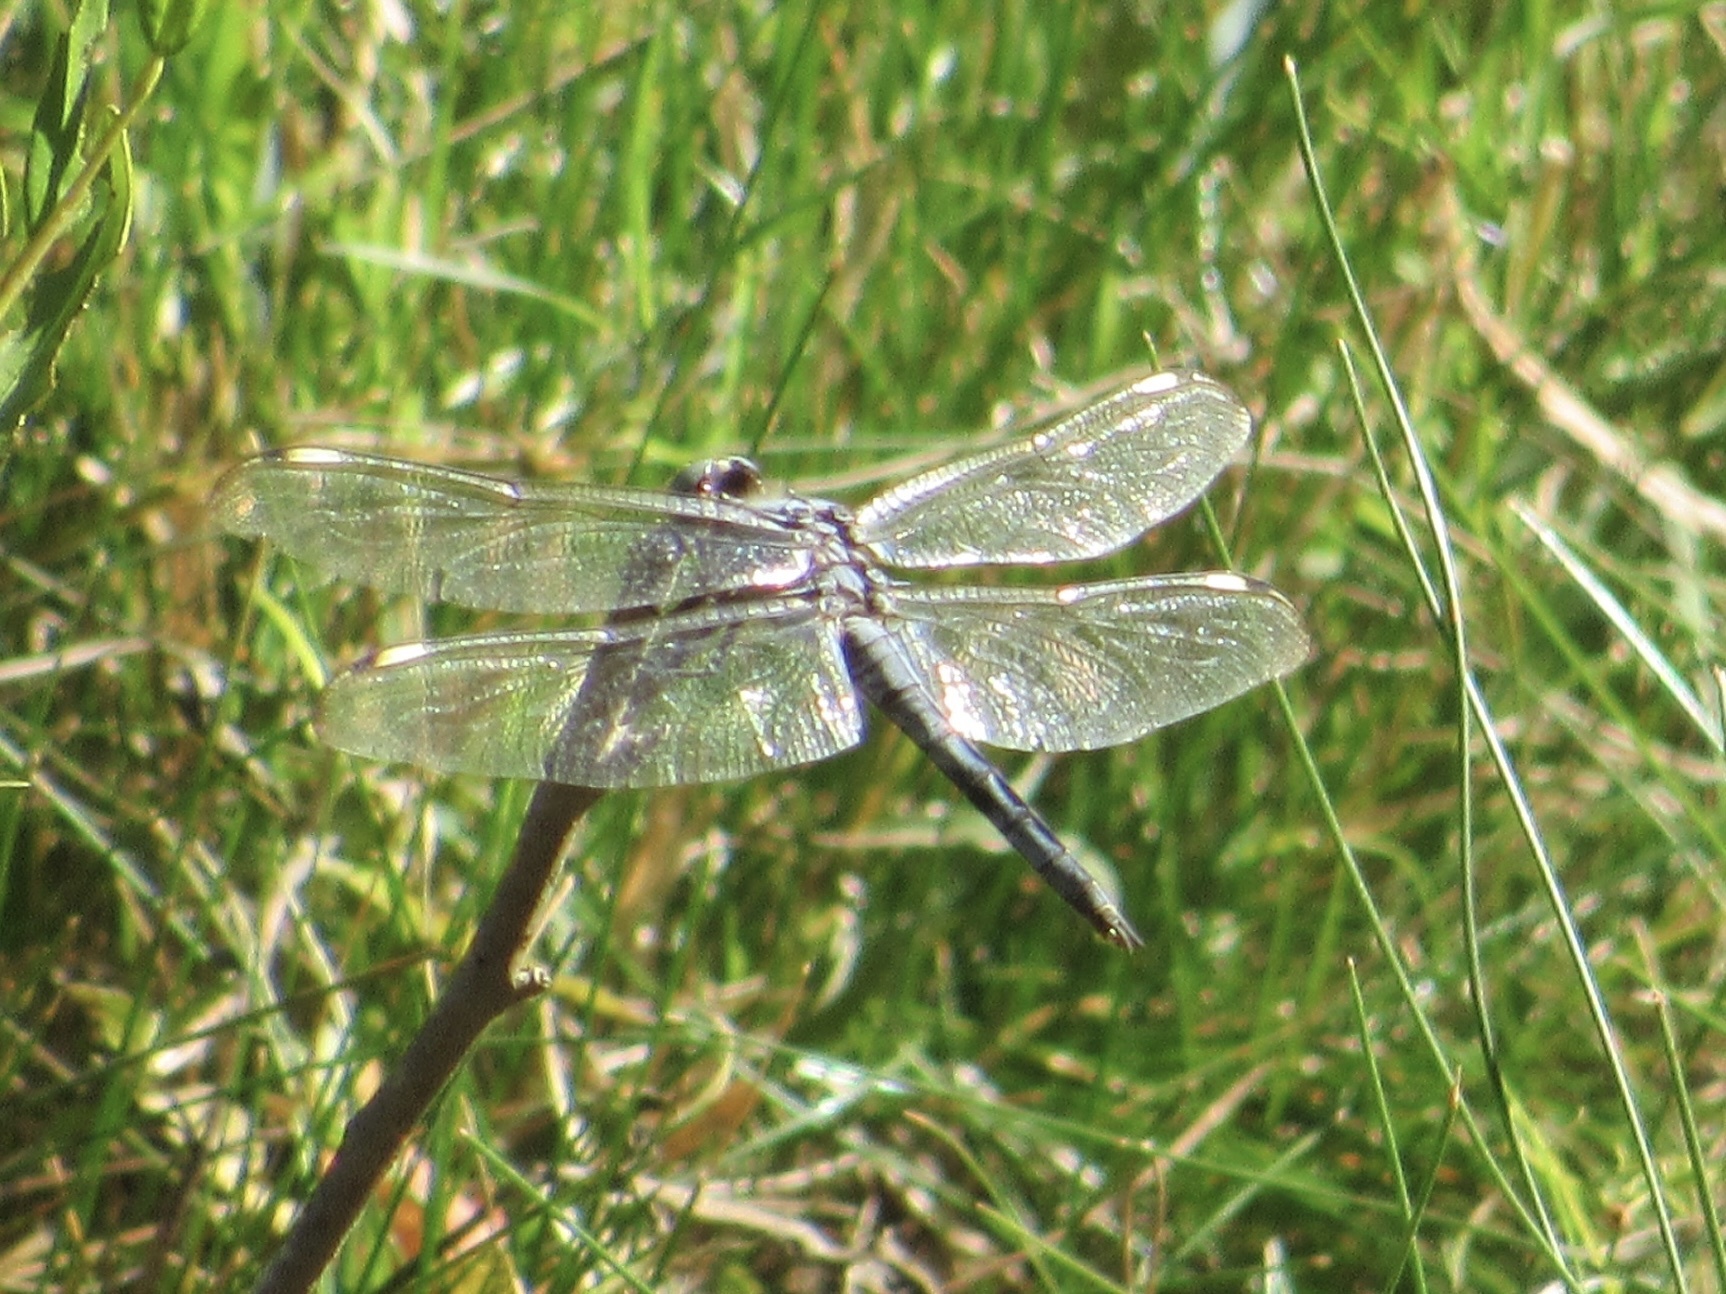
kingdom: Animalia
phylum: Arthropoda
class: Insecta
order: Odonata
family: Libellulidae
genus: Libellula
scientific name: Libellula comanche
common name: Comanche skimmer
